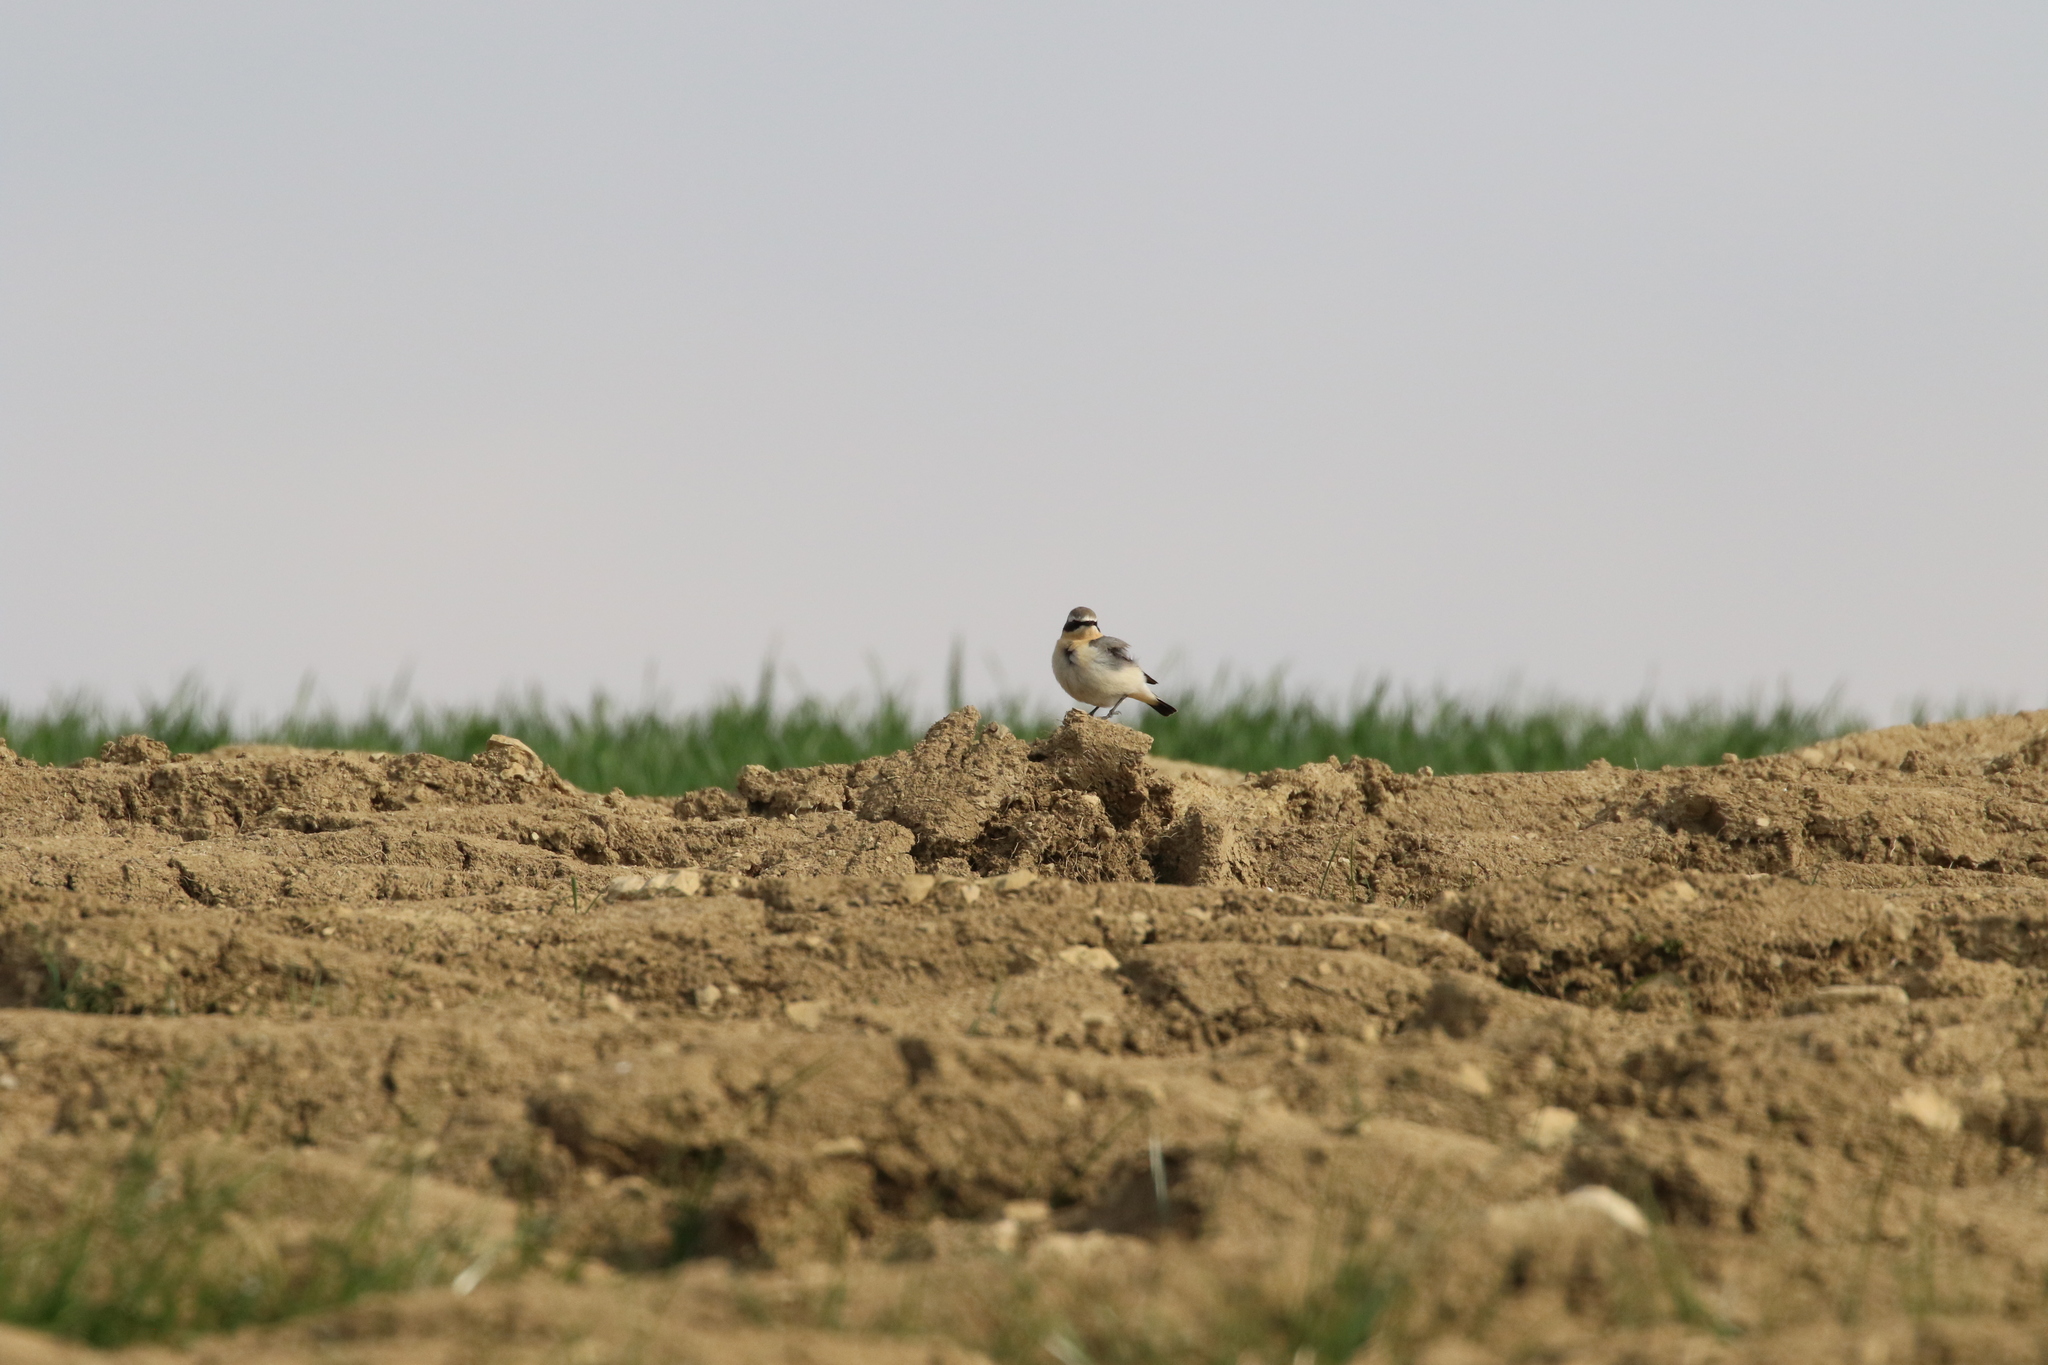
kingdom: Animalia
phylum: Chordata
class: Aves
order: Passeriformes
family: Muscicapidae
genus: Oenanthe
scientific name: Oenanthe oenanthe
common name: Northern wheatear
